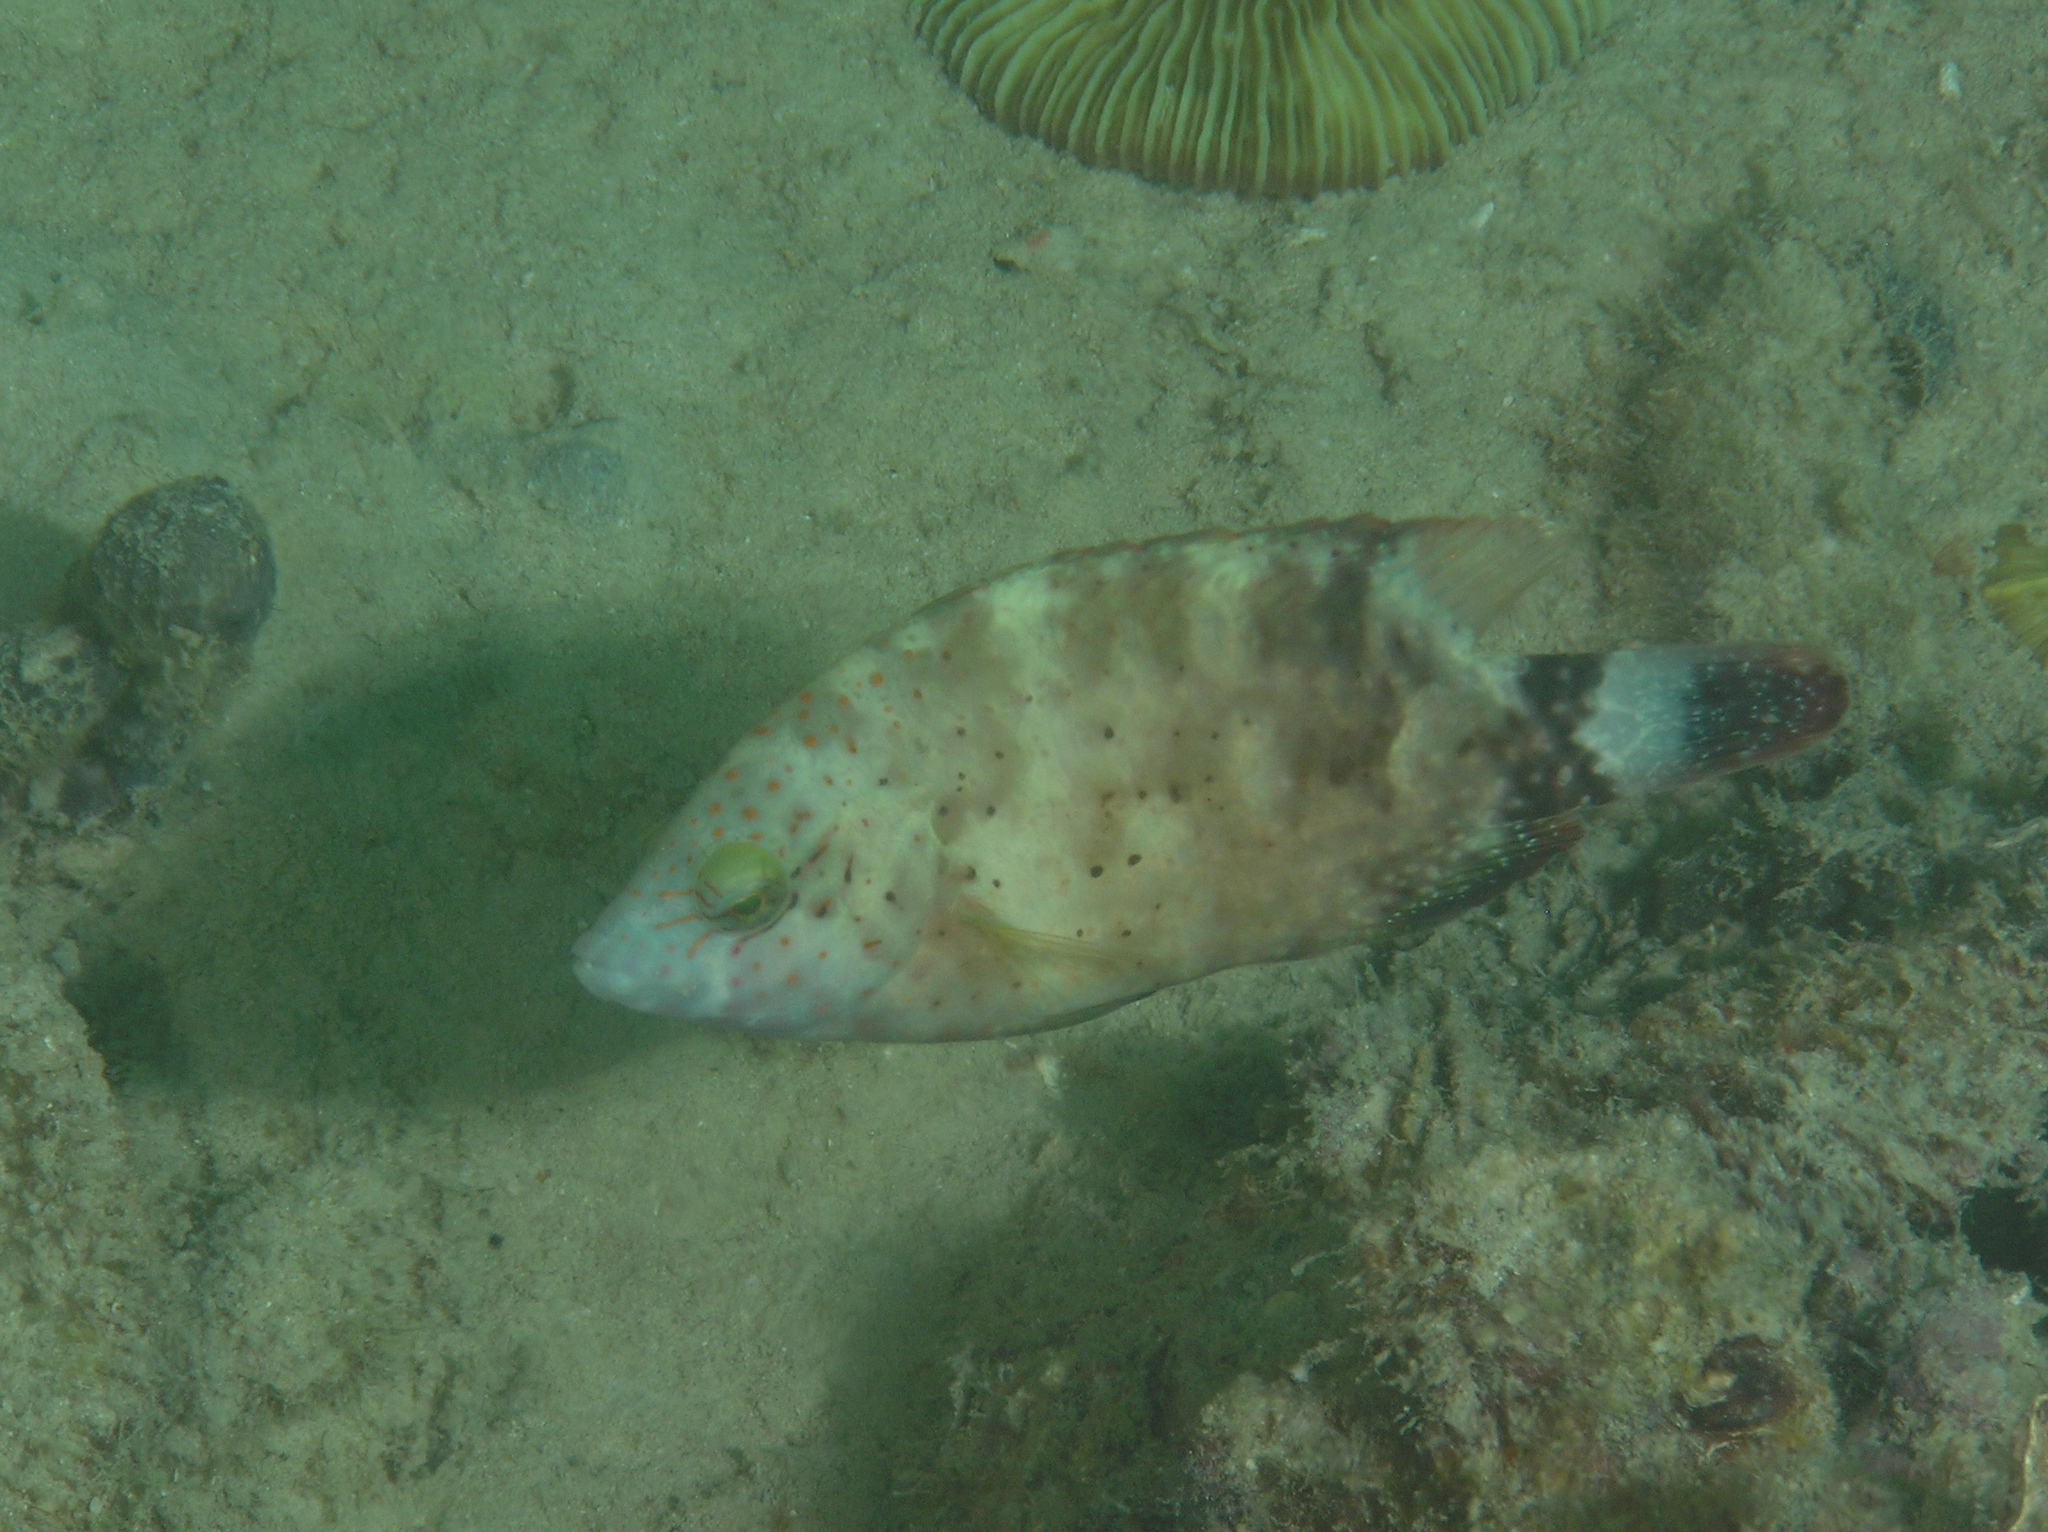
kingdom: Animalia
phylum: Chordata
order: Perciformes
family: Labridae
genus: Cheilinus
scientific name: Cheilinus chlorourus
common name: Floral wrasse
